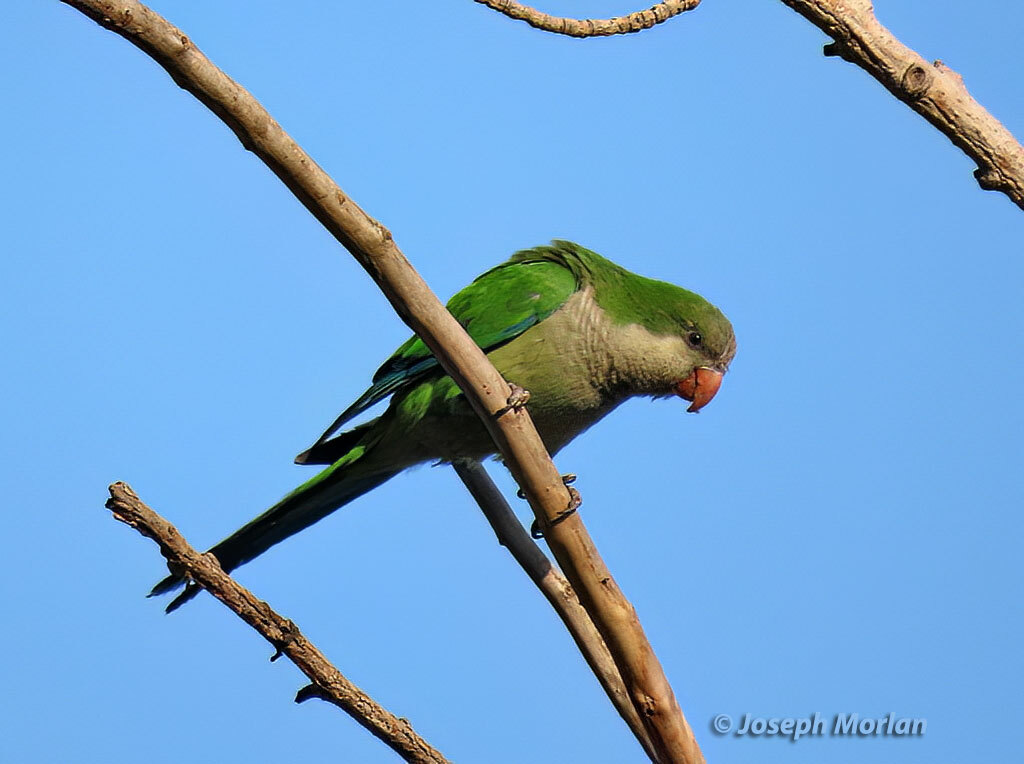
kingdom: Animalia
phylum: Chordata
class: Aves
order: Psittaciformes
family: Psittacidae
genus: Myiopsitta
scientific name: Myiopsitta monachus
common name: Monk parakeet
